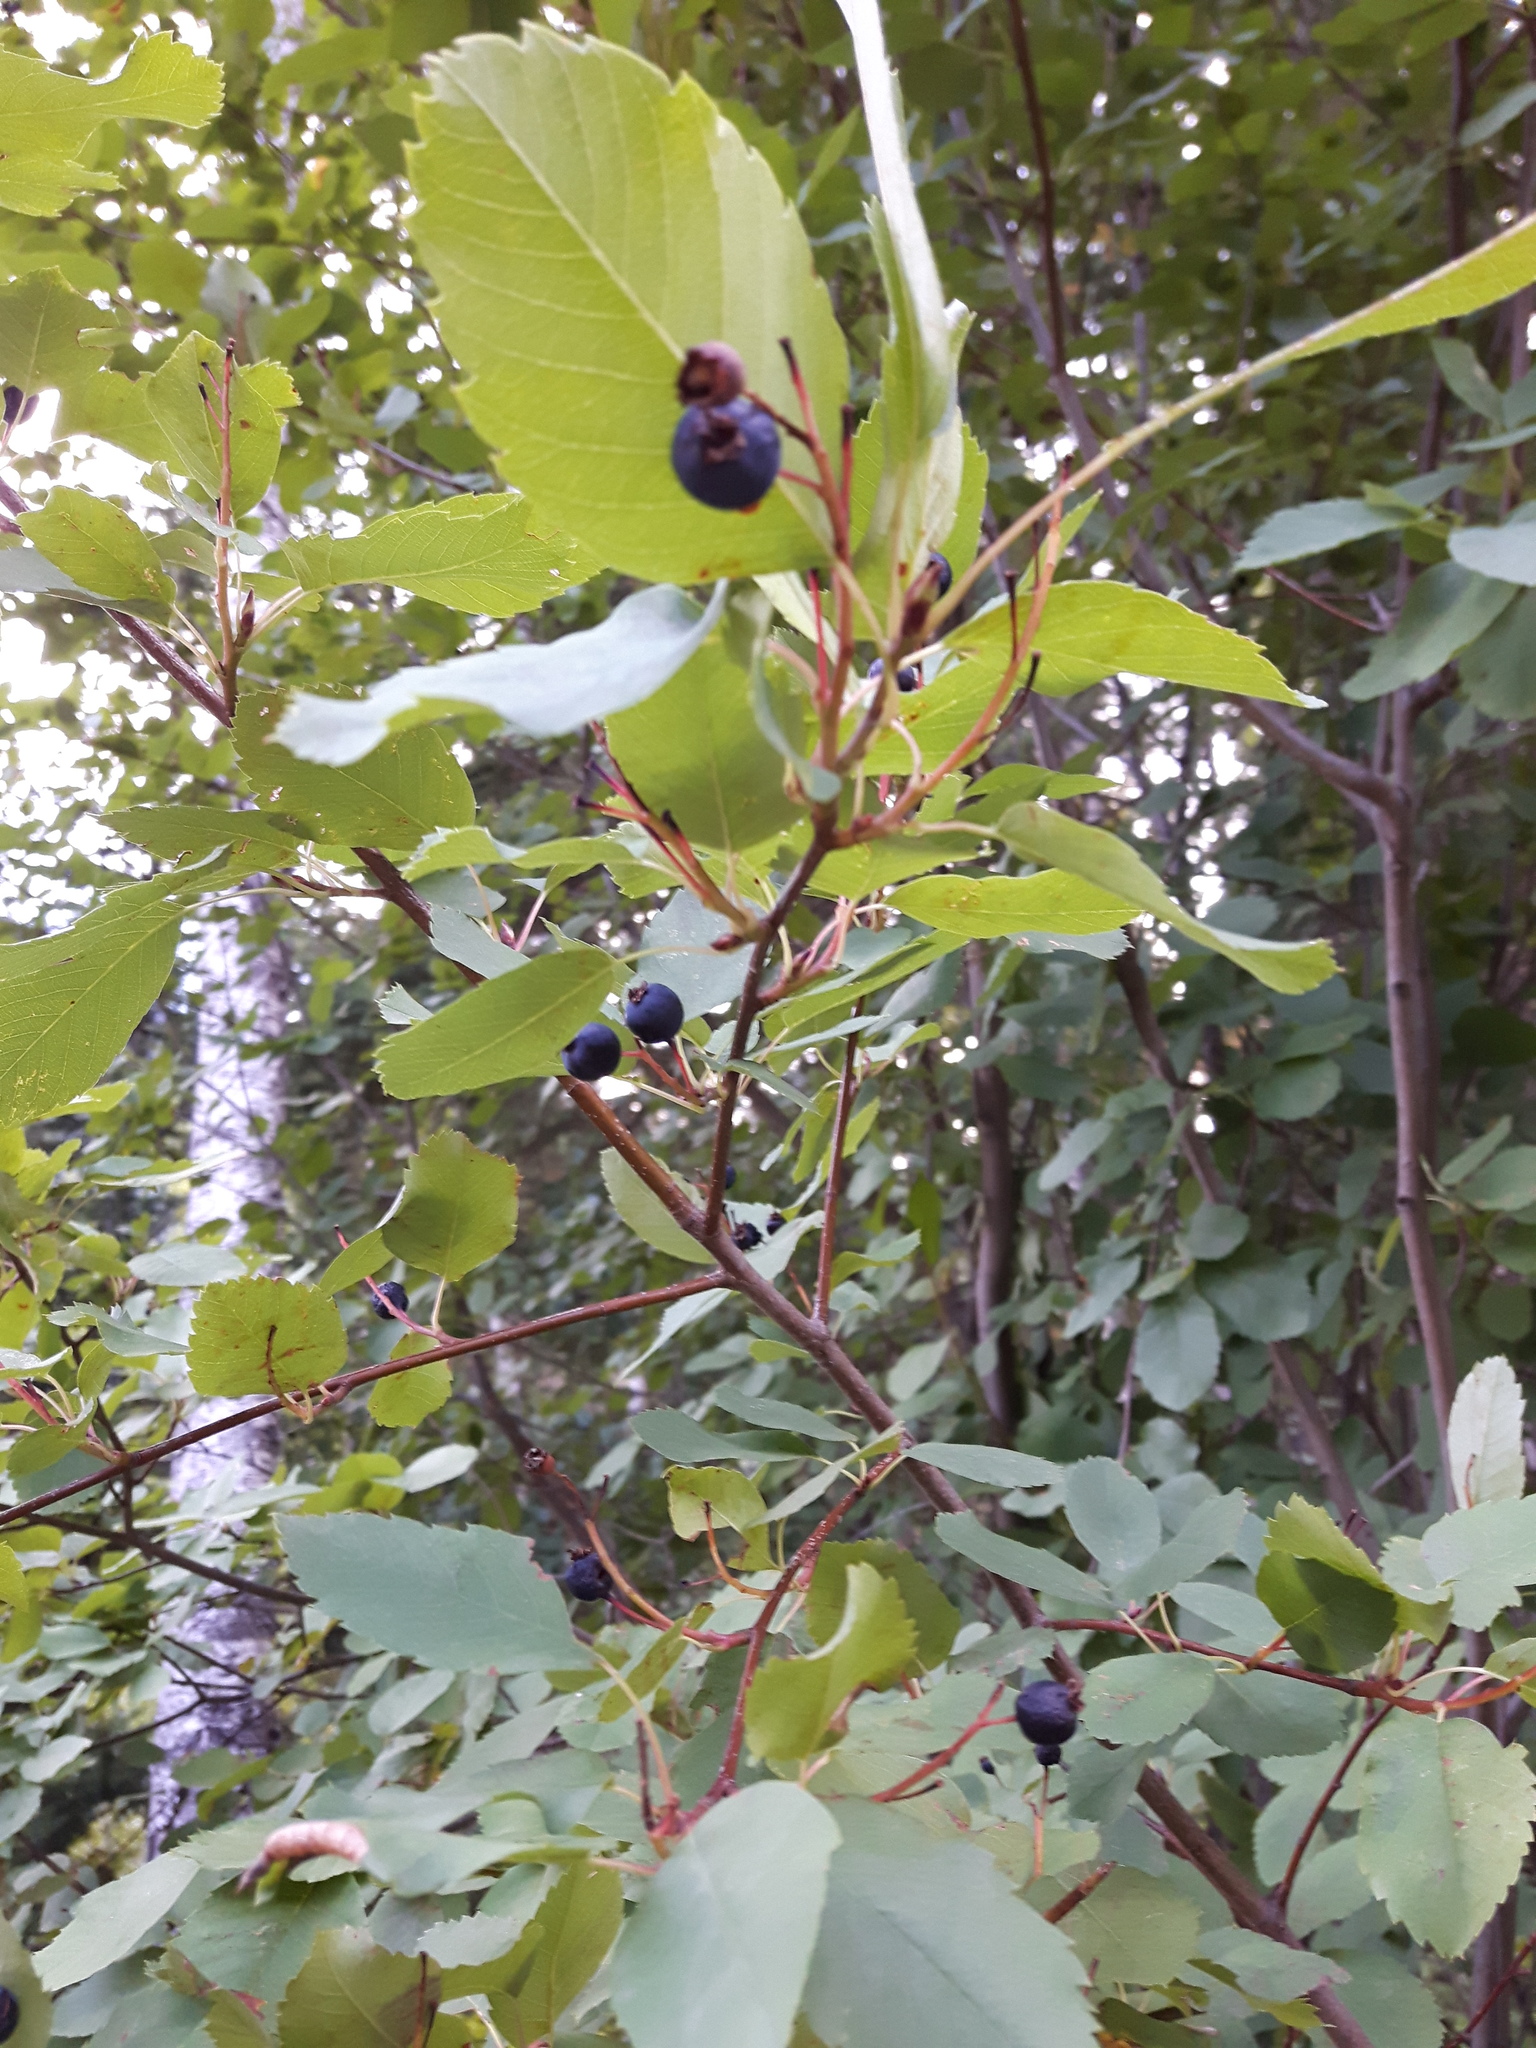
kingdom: Plantae
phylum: Tracheophyta
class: Magnoliopsida
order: Rosales
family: Rosaceae
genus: Amelanchier
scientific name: Amelanchier alnifolia
